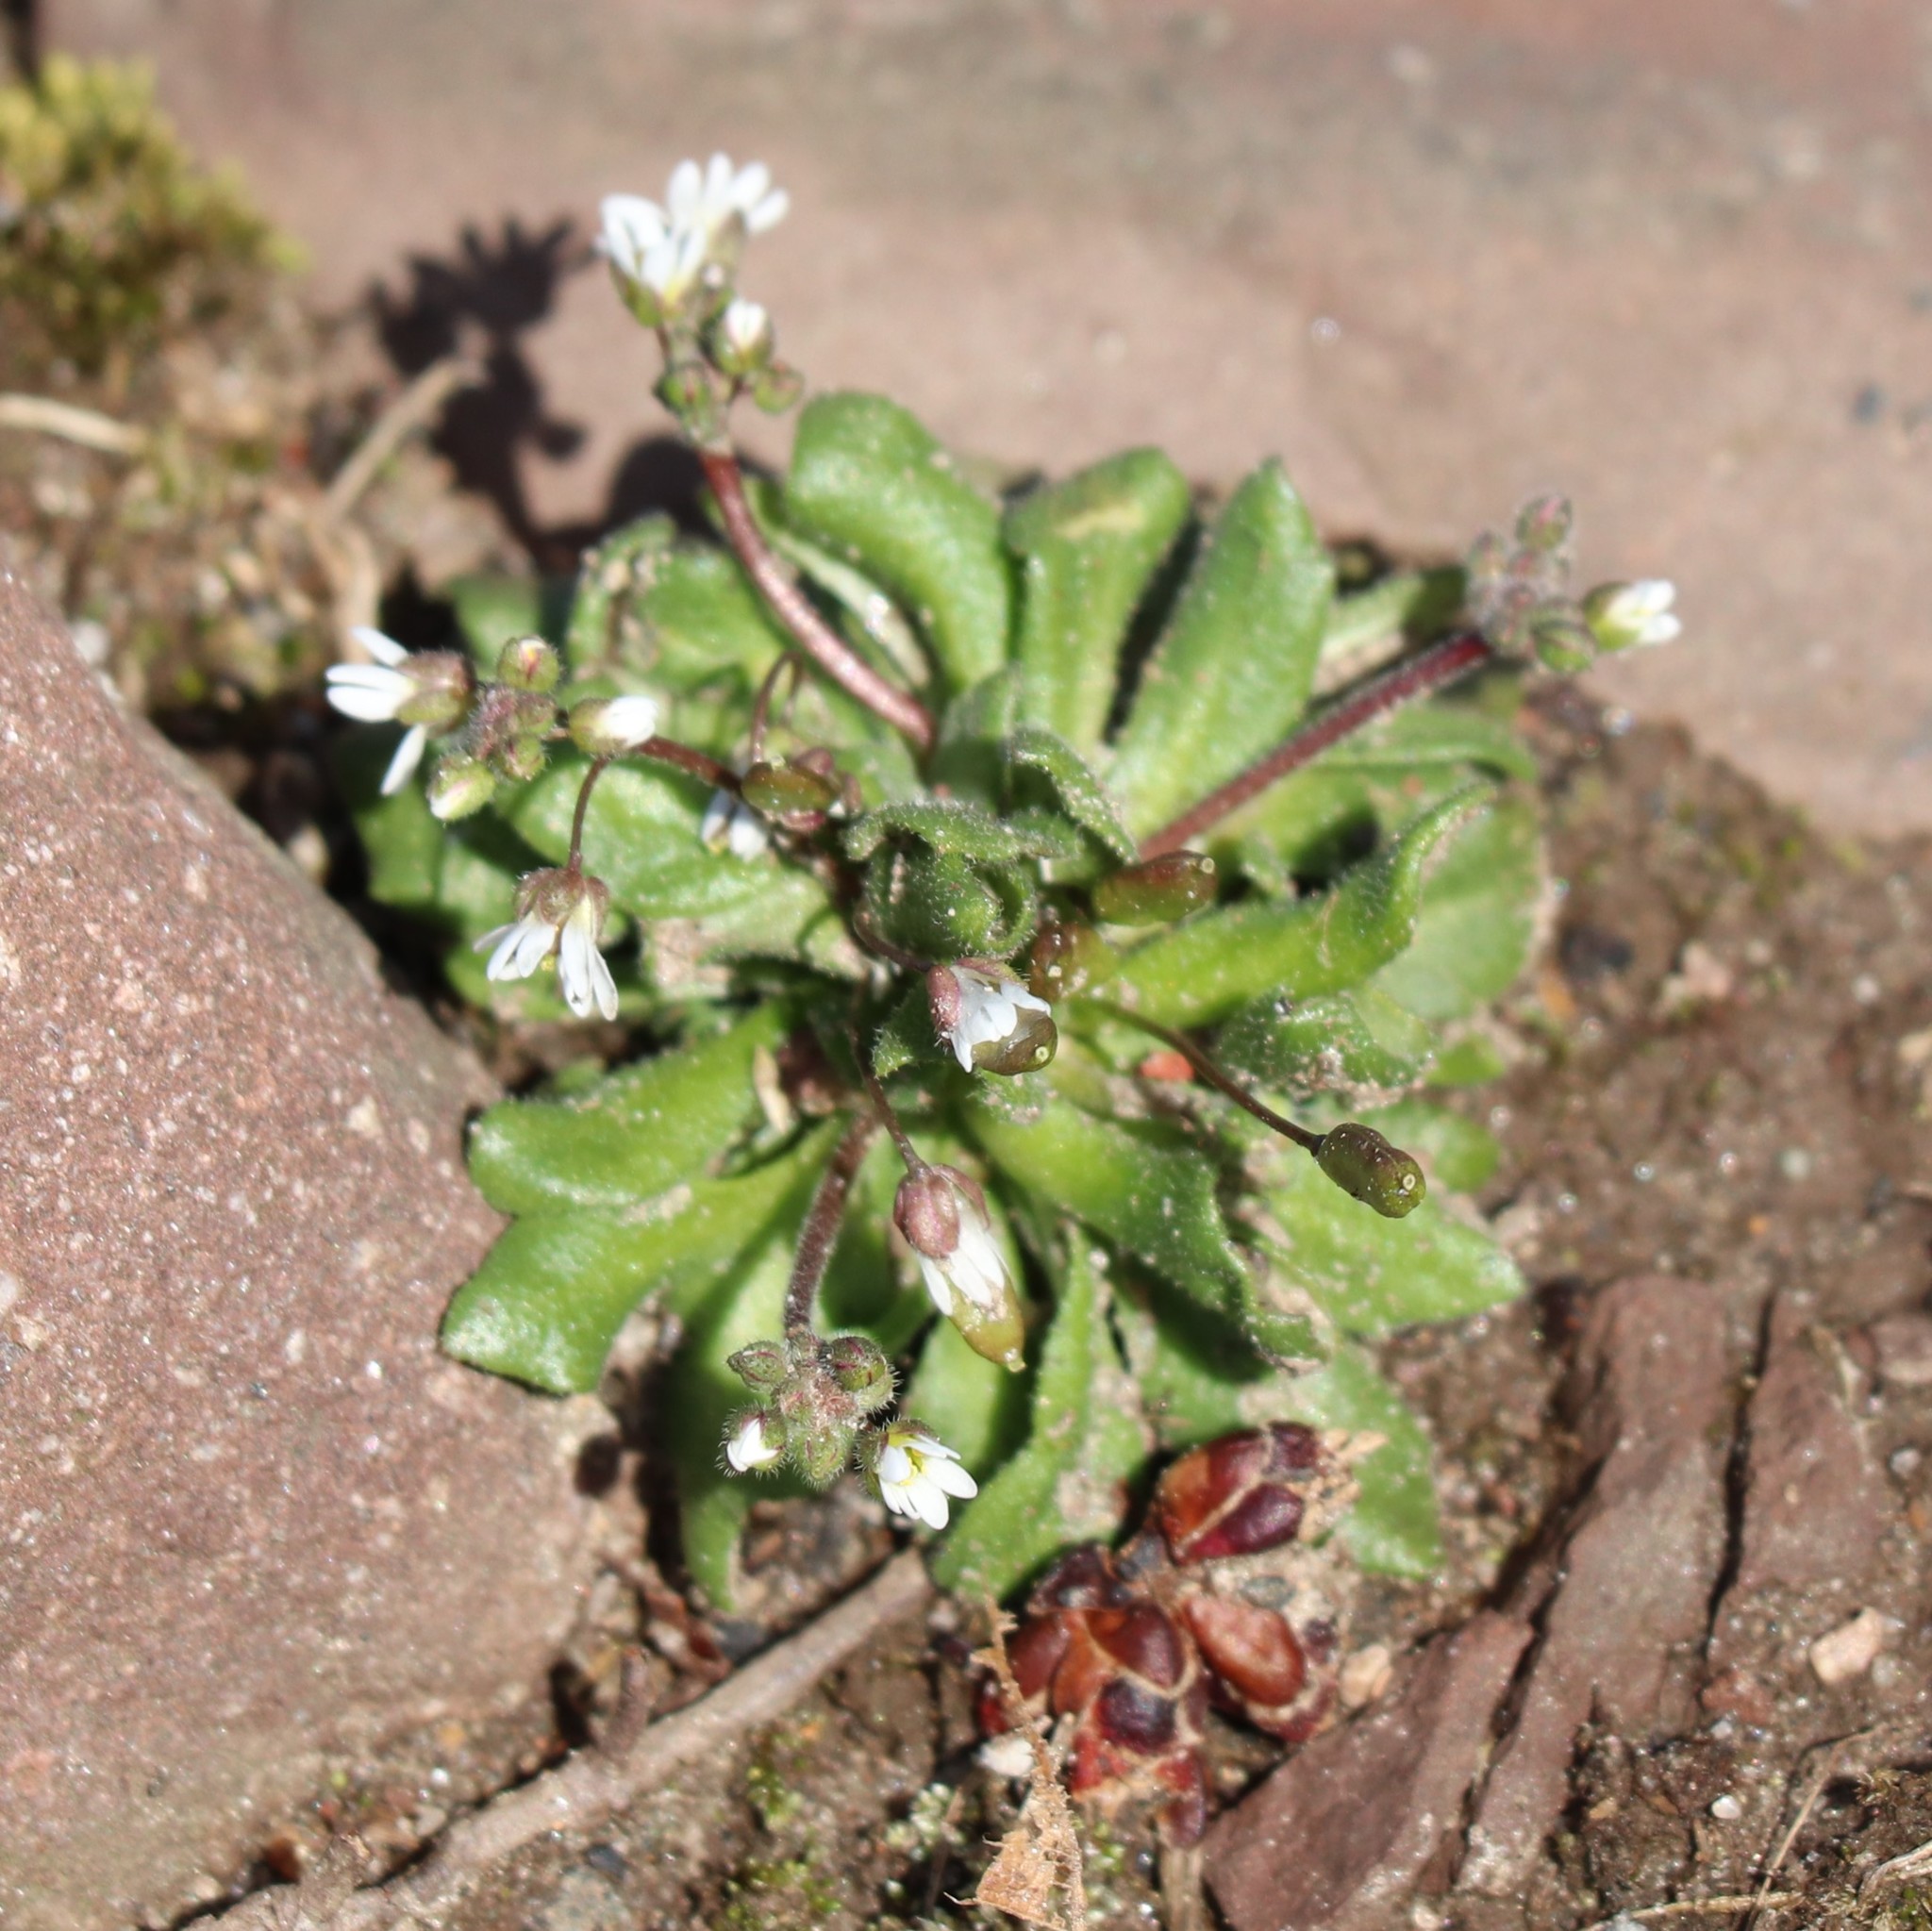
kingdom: Plantae
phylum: Tracheophyta
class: Magnoliopsida
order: Brassicales
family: Brassicaceae
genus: Draba
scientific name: Draba verna
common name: Spring draba
